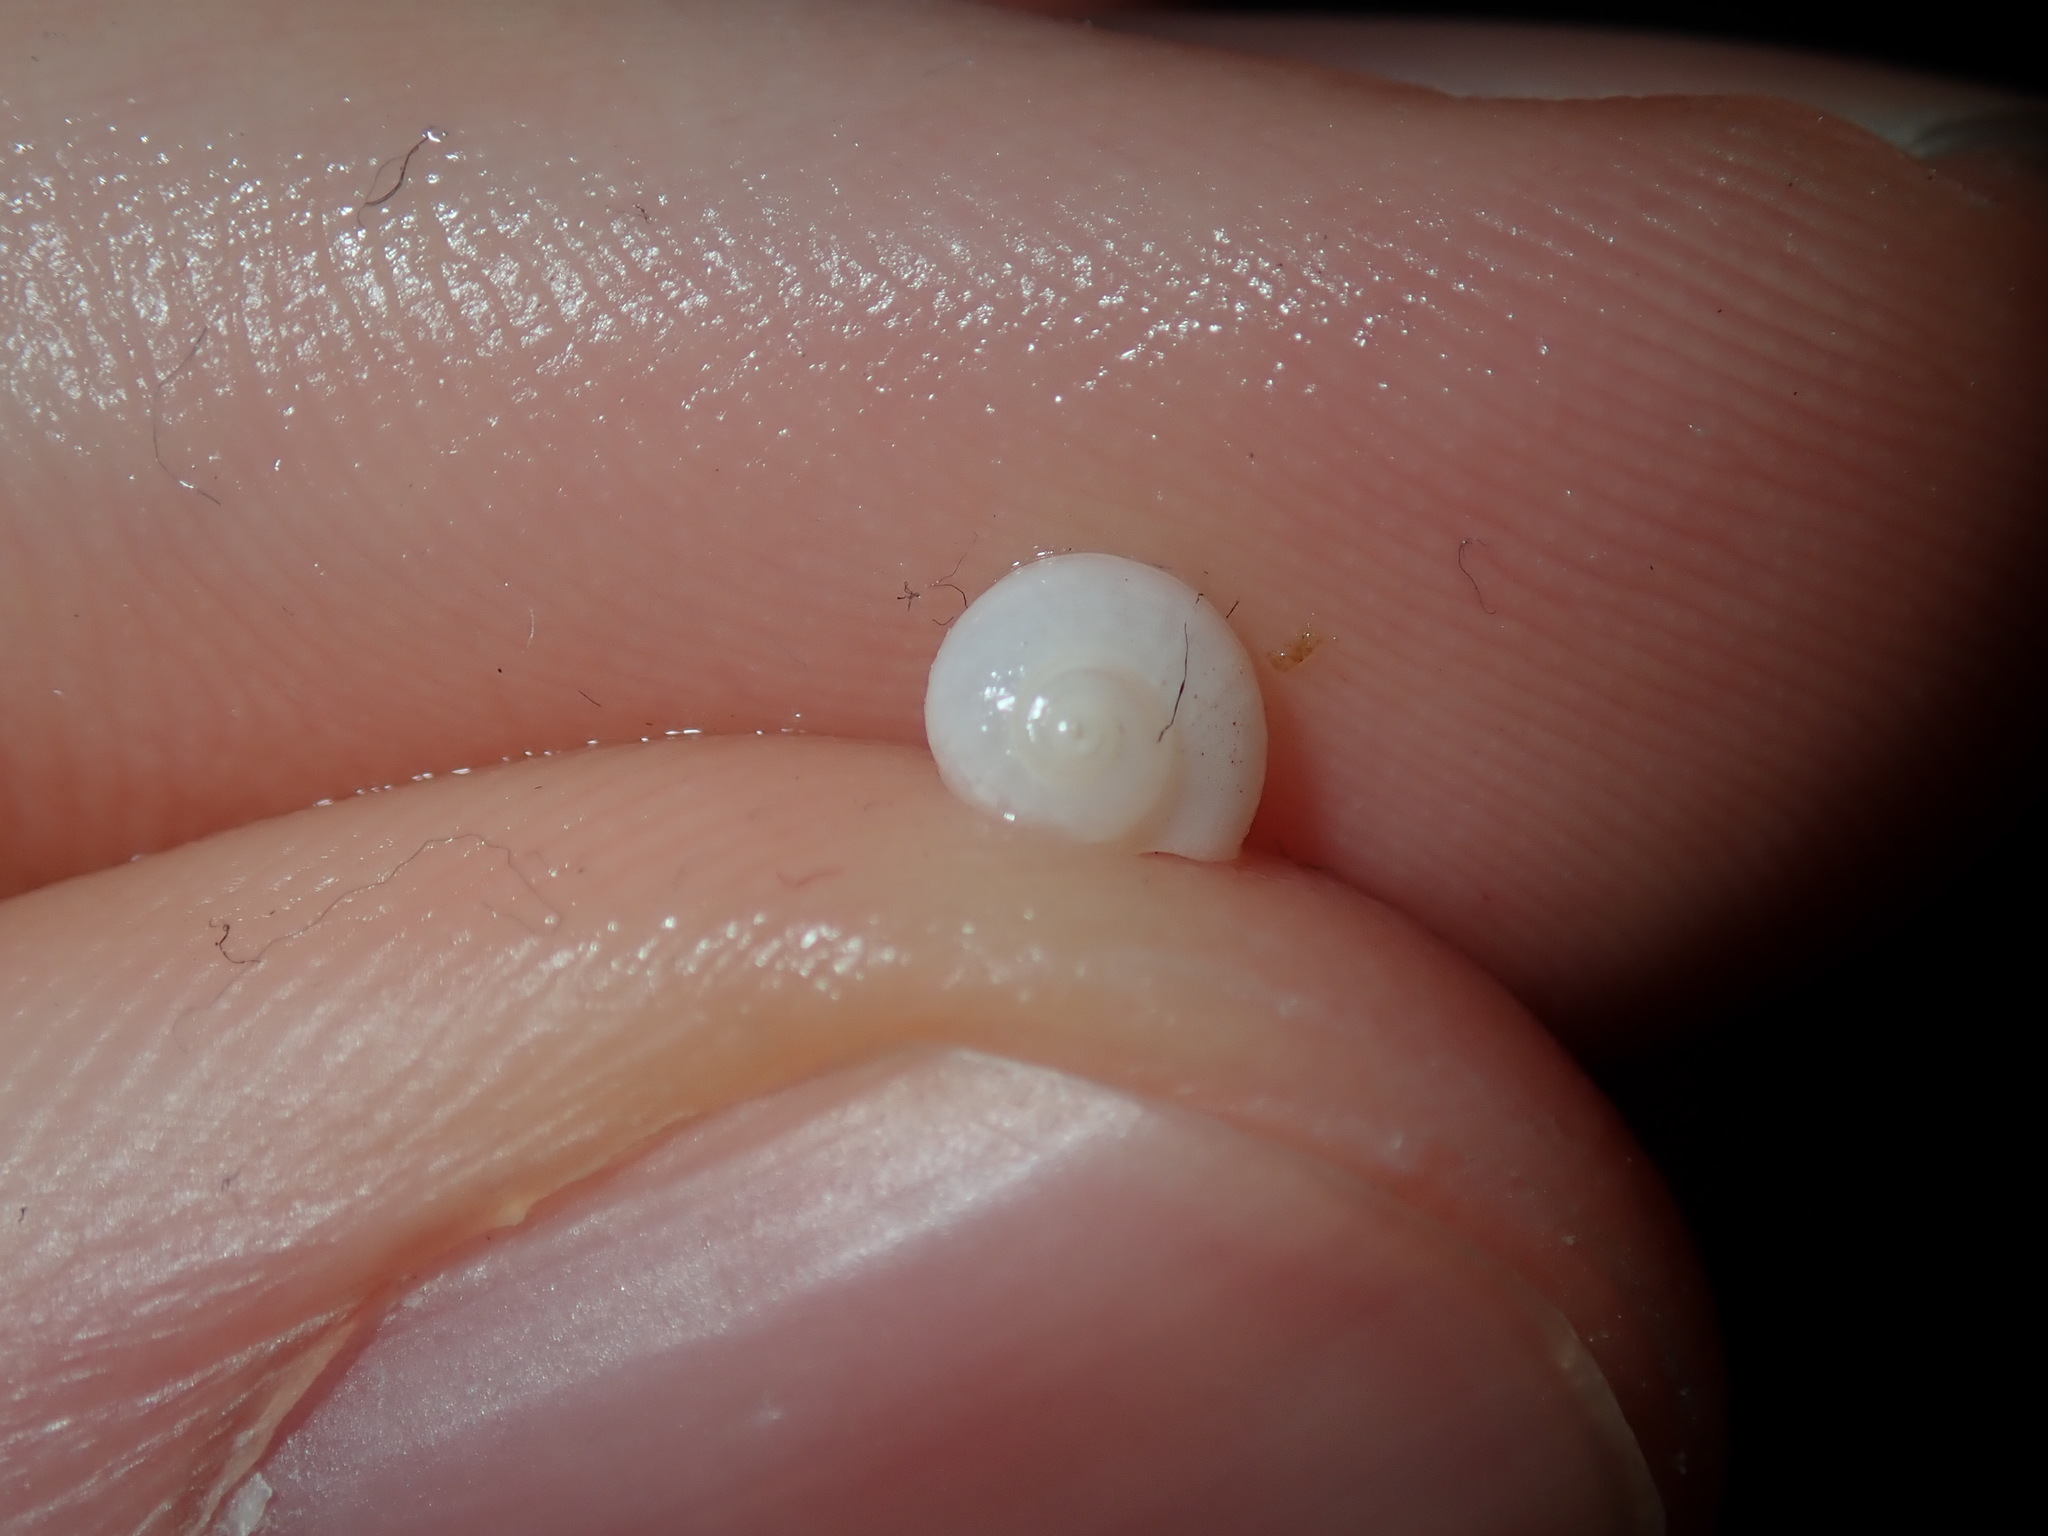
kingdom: Animalia
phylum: Mollusca
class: Gastropoda
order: Trochida
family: Conradiidae
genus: Crosseola
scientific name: Crosseola concinna
